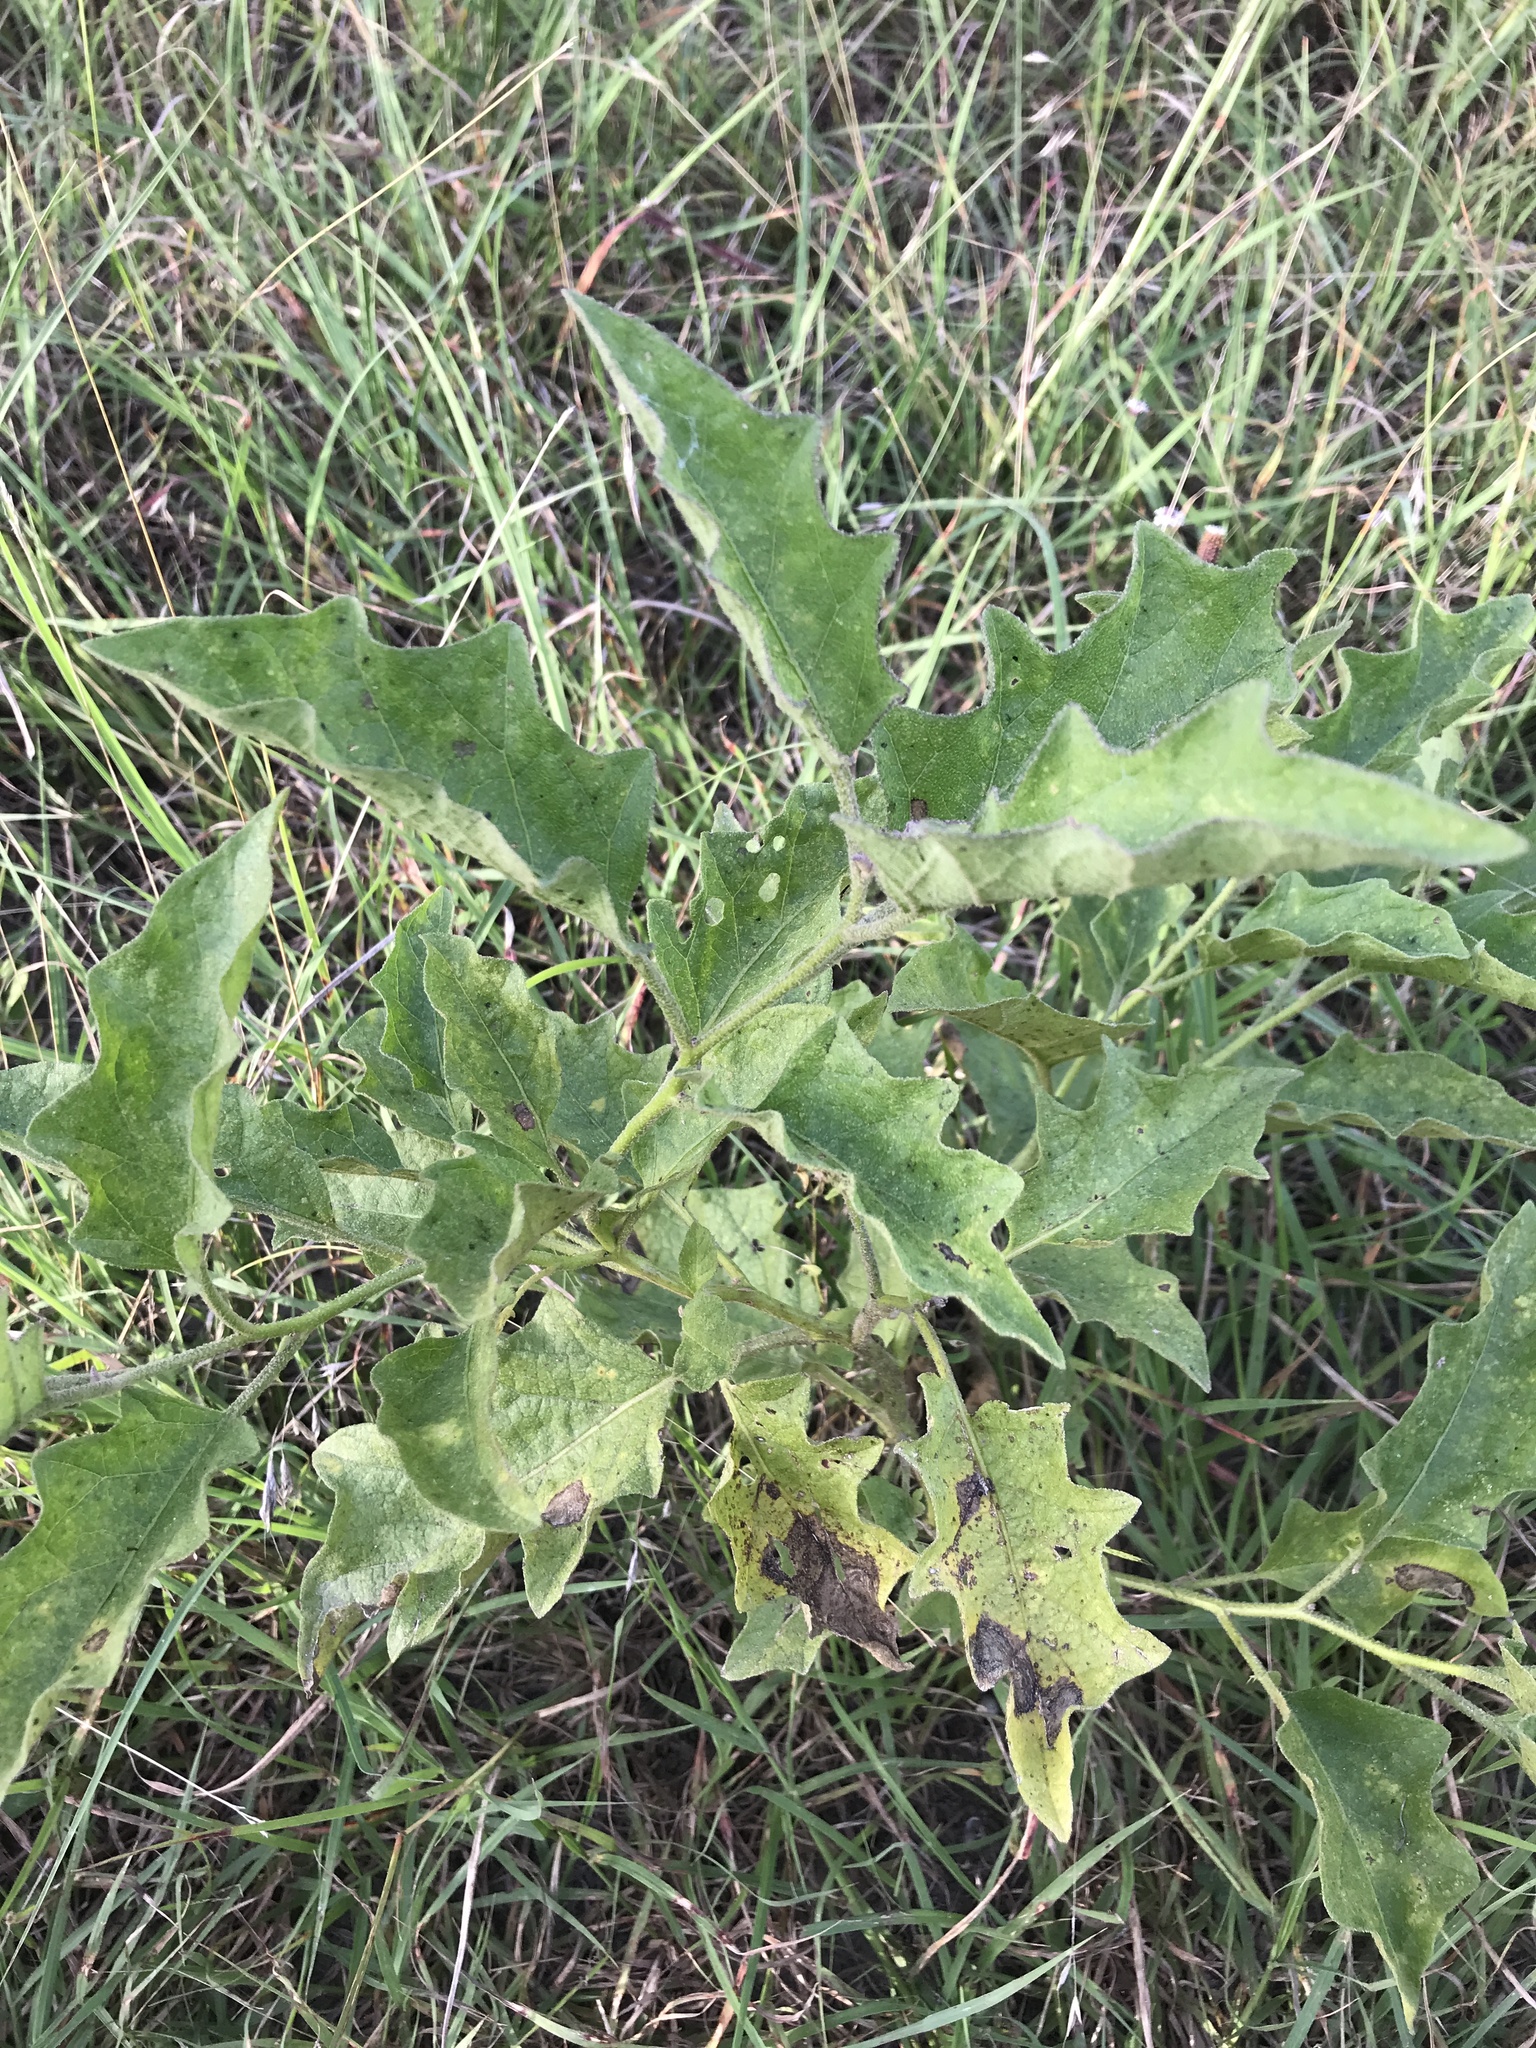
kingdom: Plantae
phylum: Tracheophyta
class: Magnoliopsida
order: Solanales
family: Solanaceae
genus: Solanum
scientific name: Solanum dimidiatum
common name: Carolina horse-nettle
